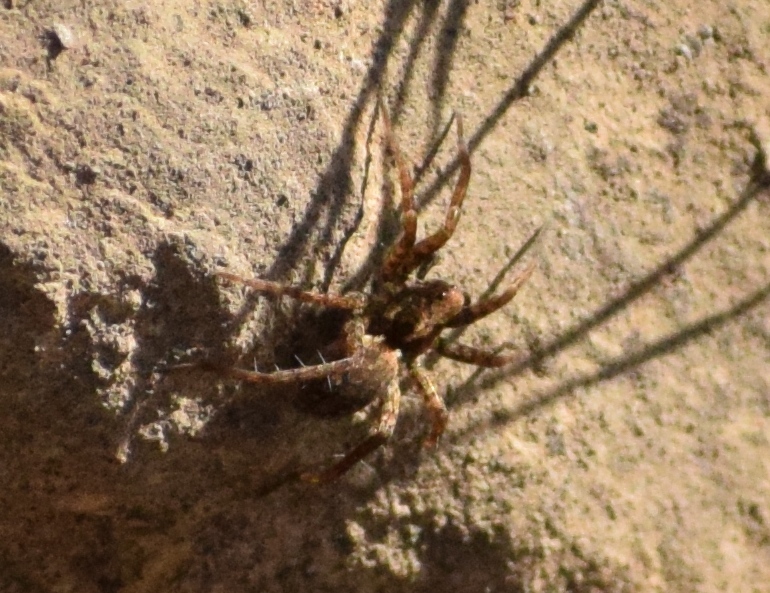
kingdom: Animalia
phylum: Arthropoda
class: Arachnida
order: Araneae
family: Lycosidae
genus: Pardosa
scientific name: Pardosa
